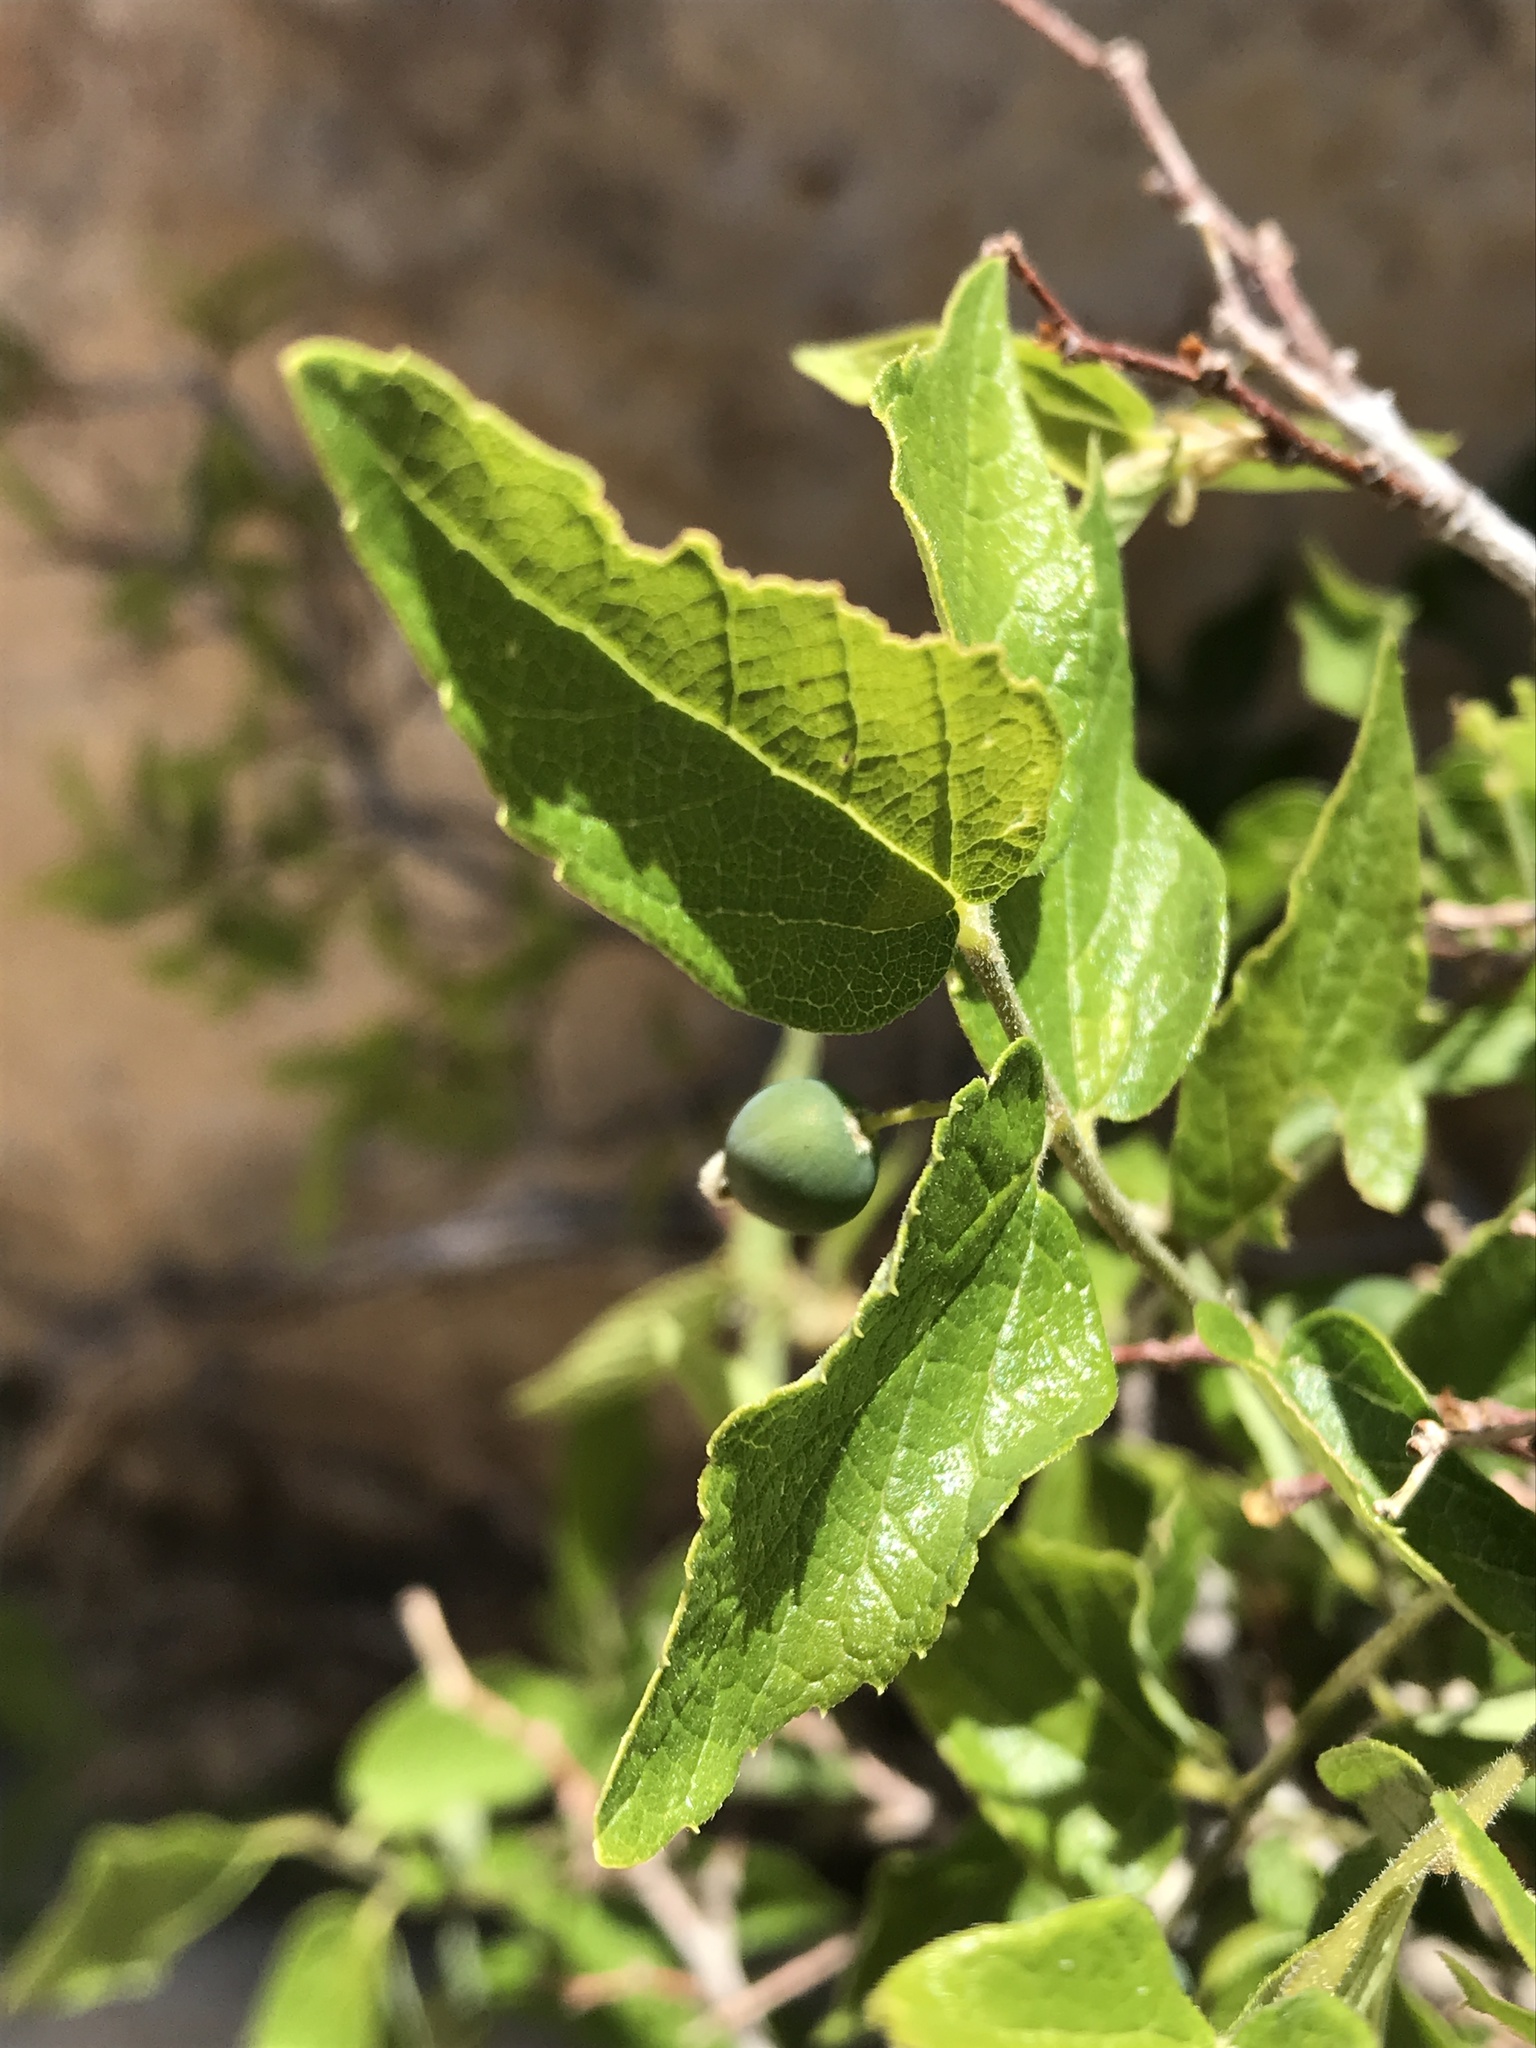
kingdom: Plantae
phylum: Tracheophyta
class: Magnoliopsida
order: Rosales
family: Cannabaceae
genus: Celtis
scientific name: Celtis reticulata
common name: Netleaf hackberry
